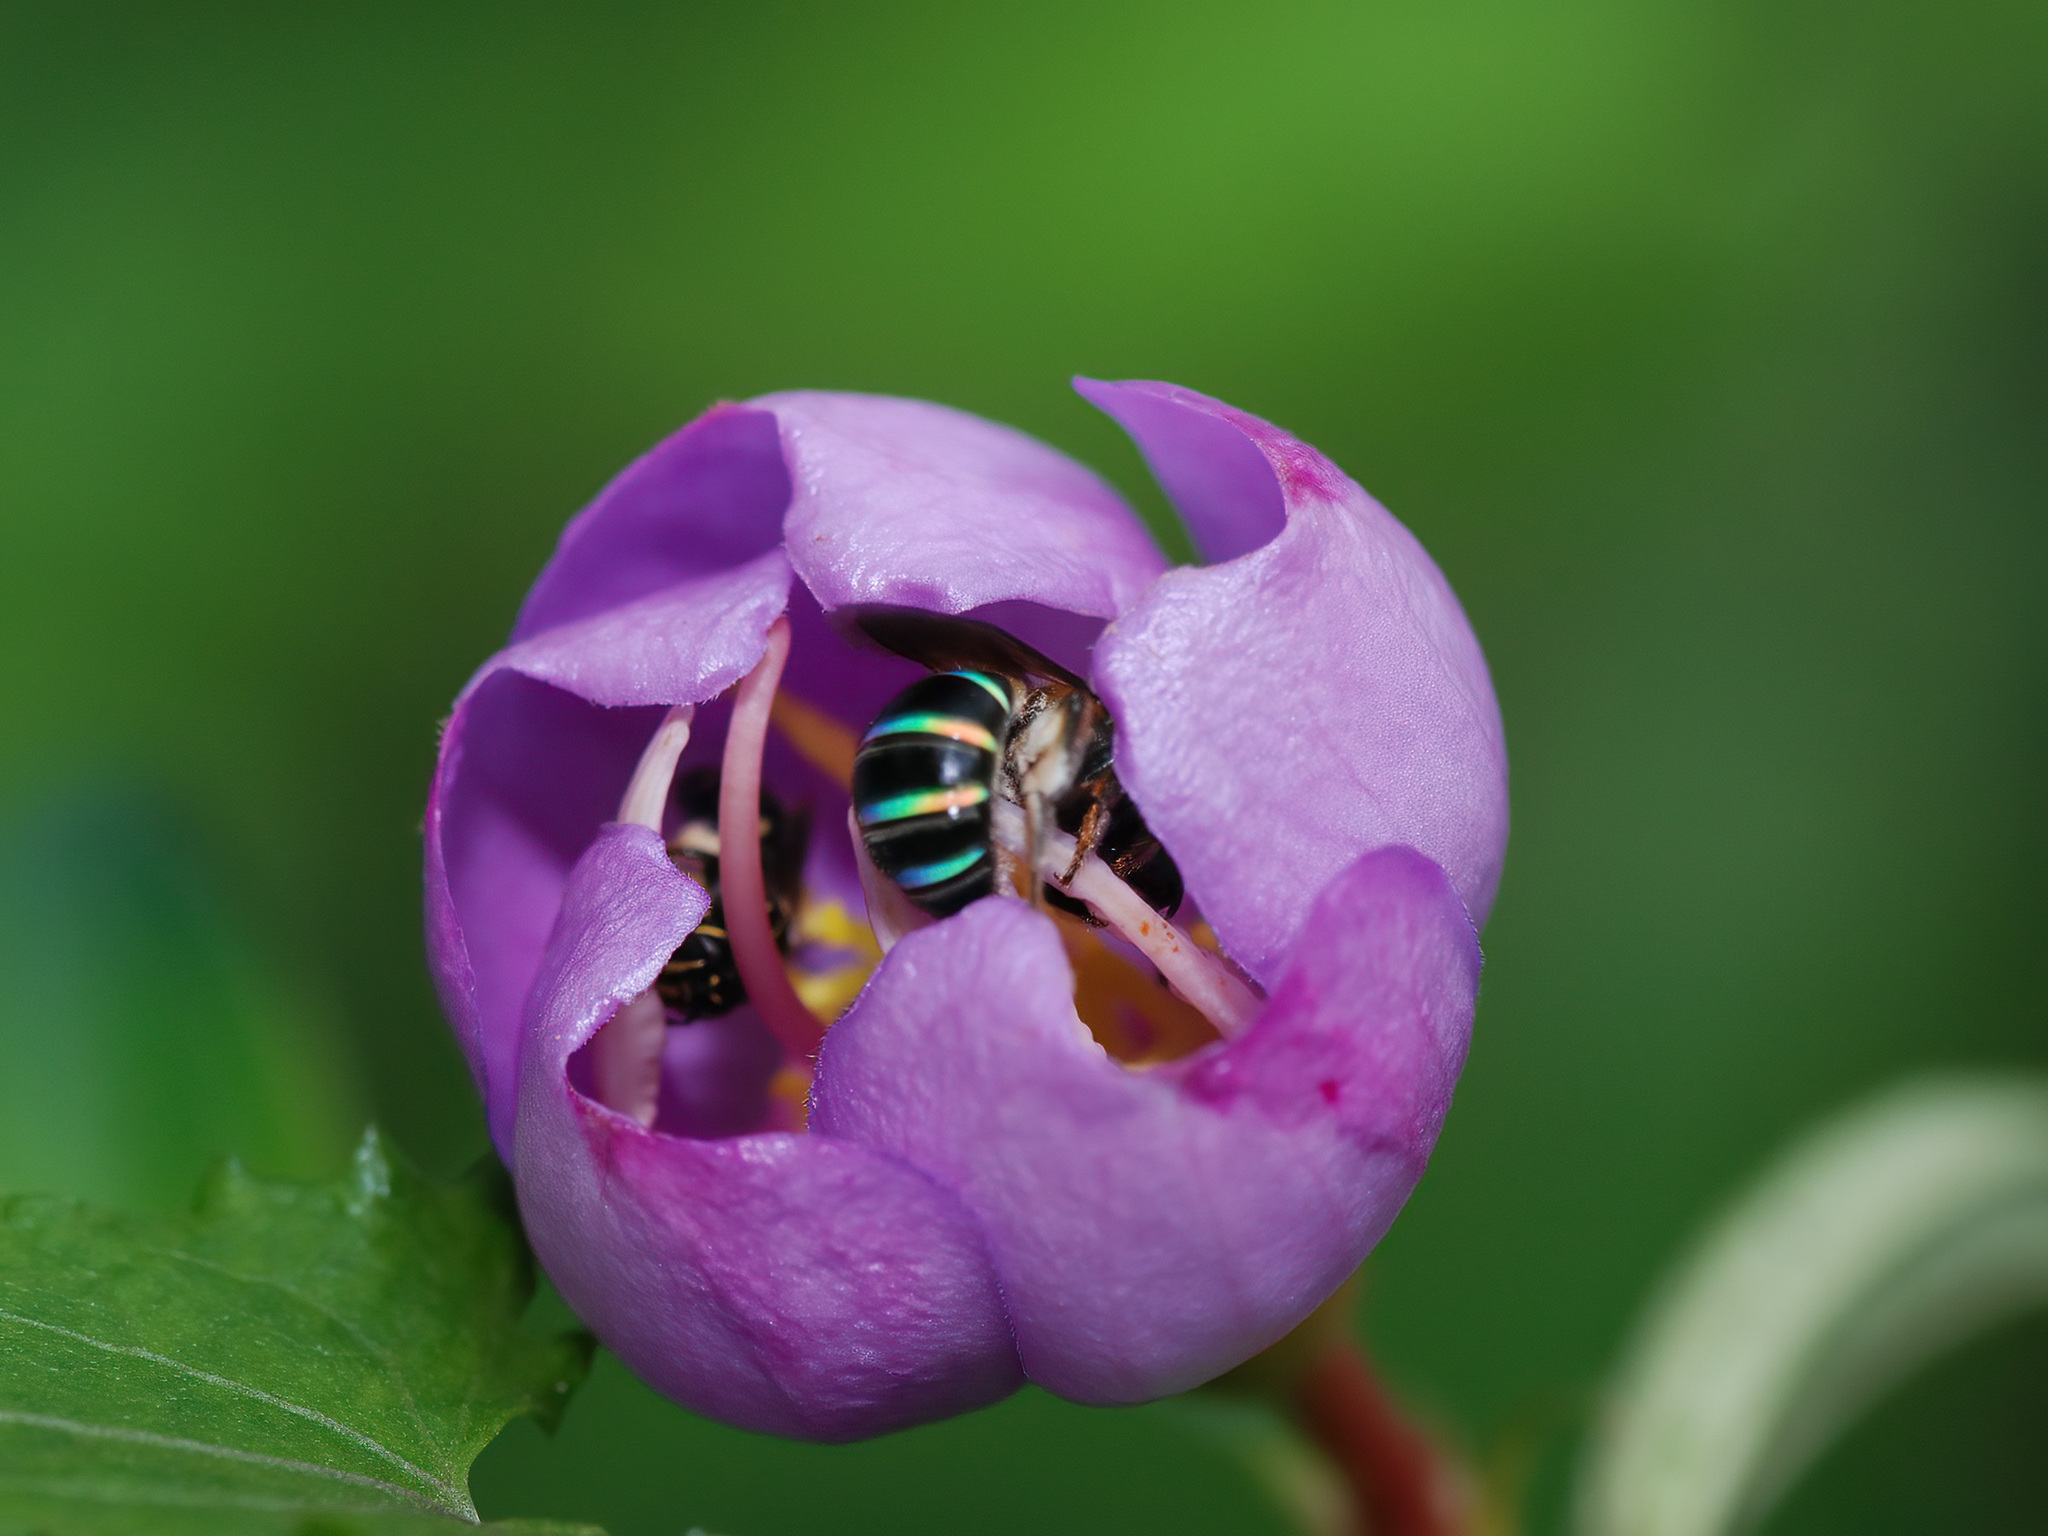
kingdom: Animalia
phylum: Arthropoda
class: Insecta
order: Hymenoptera
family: Halictidae
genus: Nomia
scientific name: Nomia strigata
